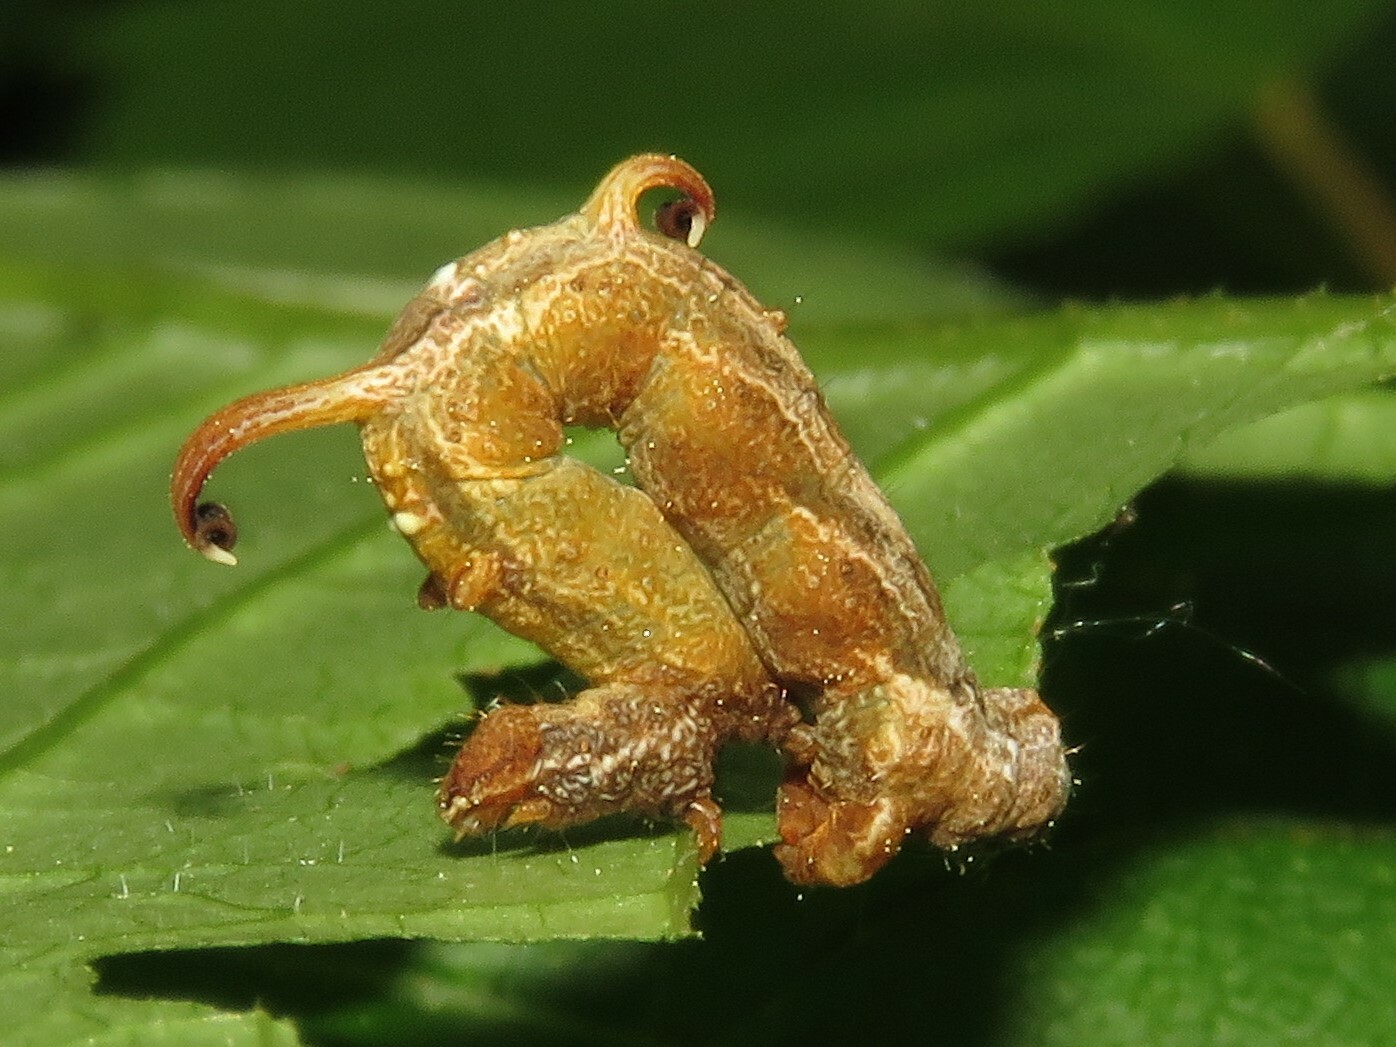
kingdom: Animalia
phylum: Arthropoda
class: Insecta
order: Lepidoptera
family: Geometridae
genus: Nematocampa
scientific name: Nematocampa resistaria
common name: Horned spanworm moth
